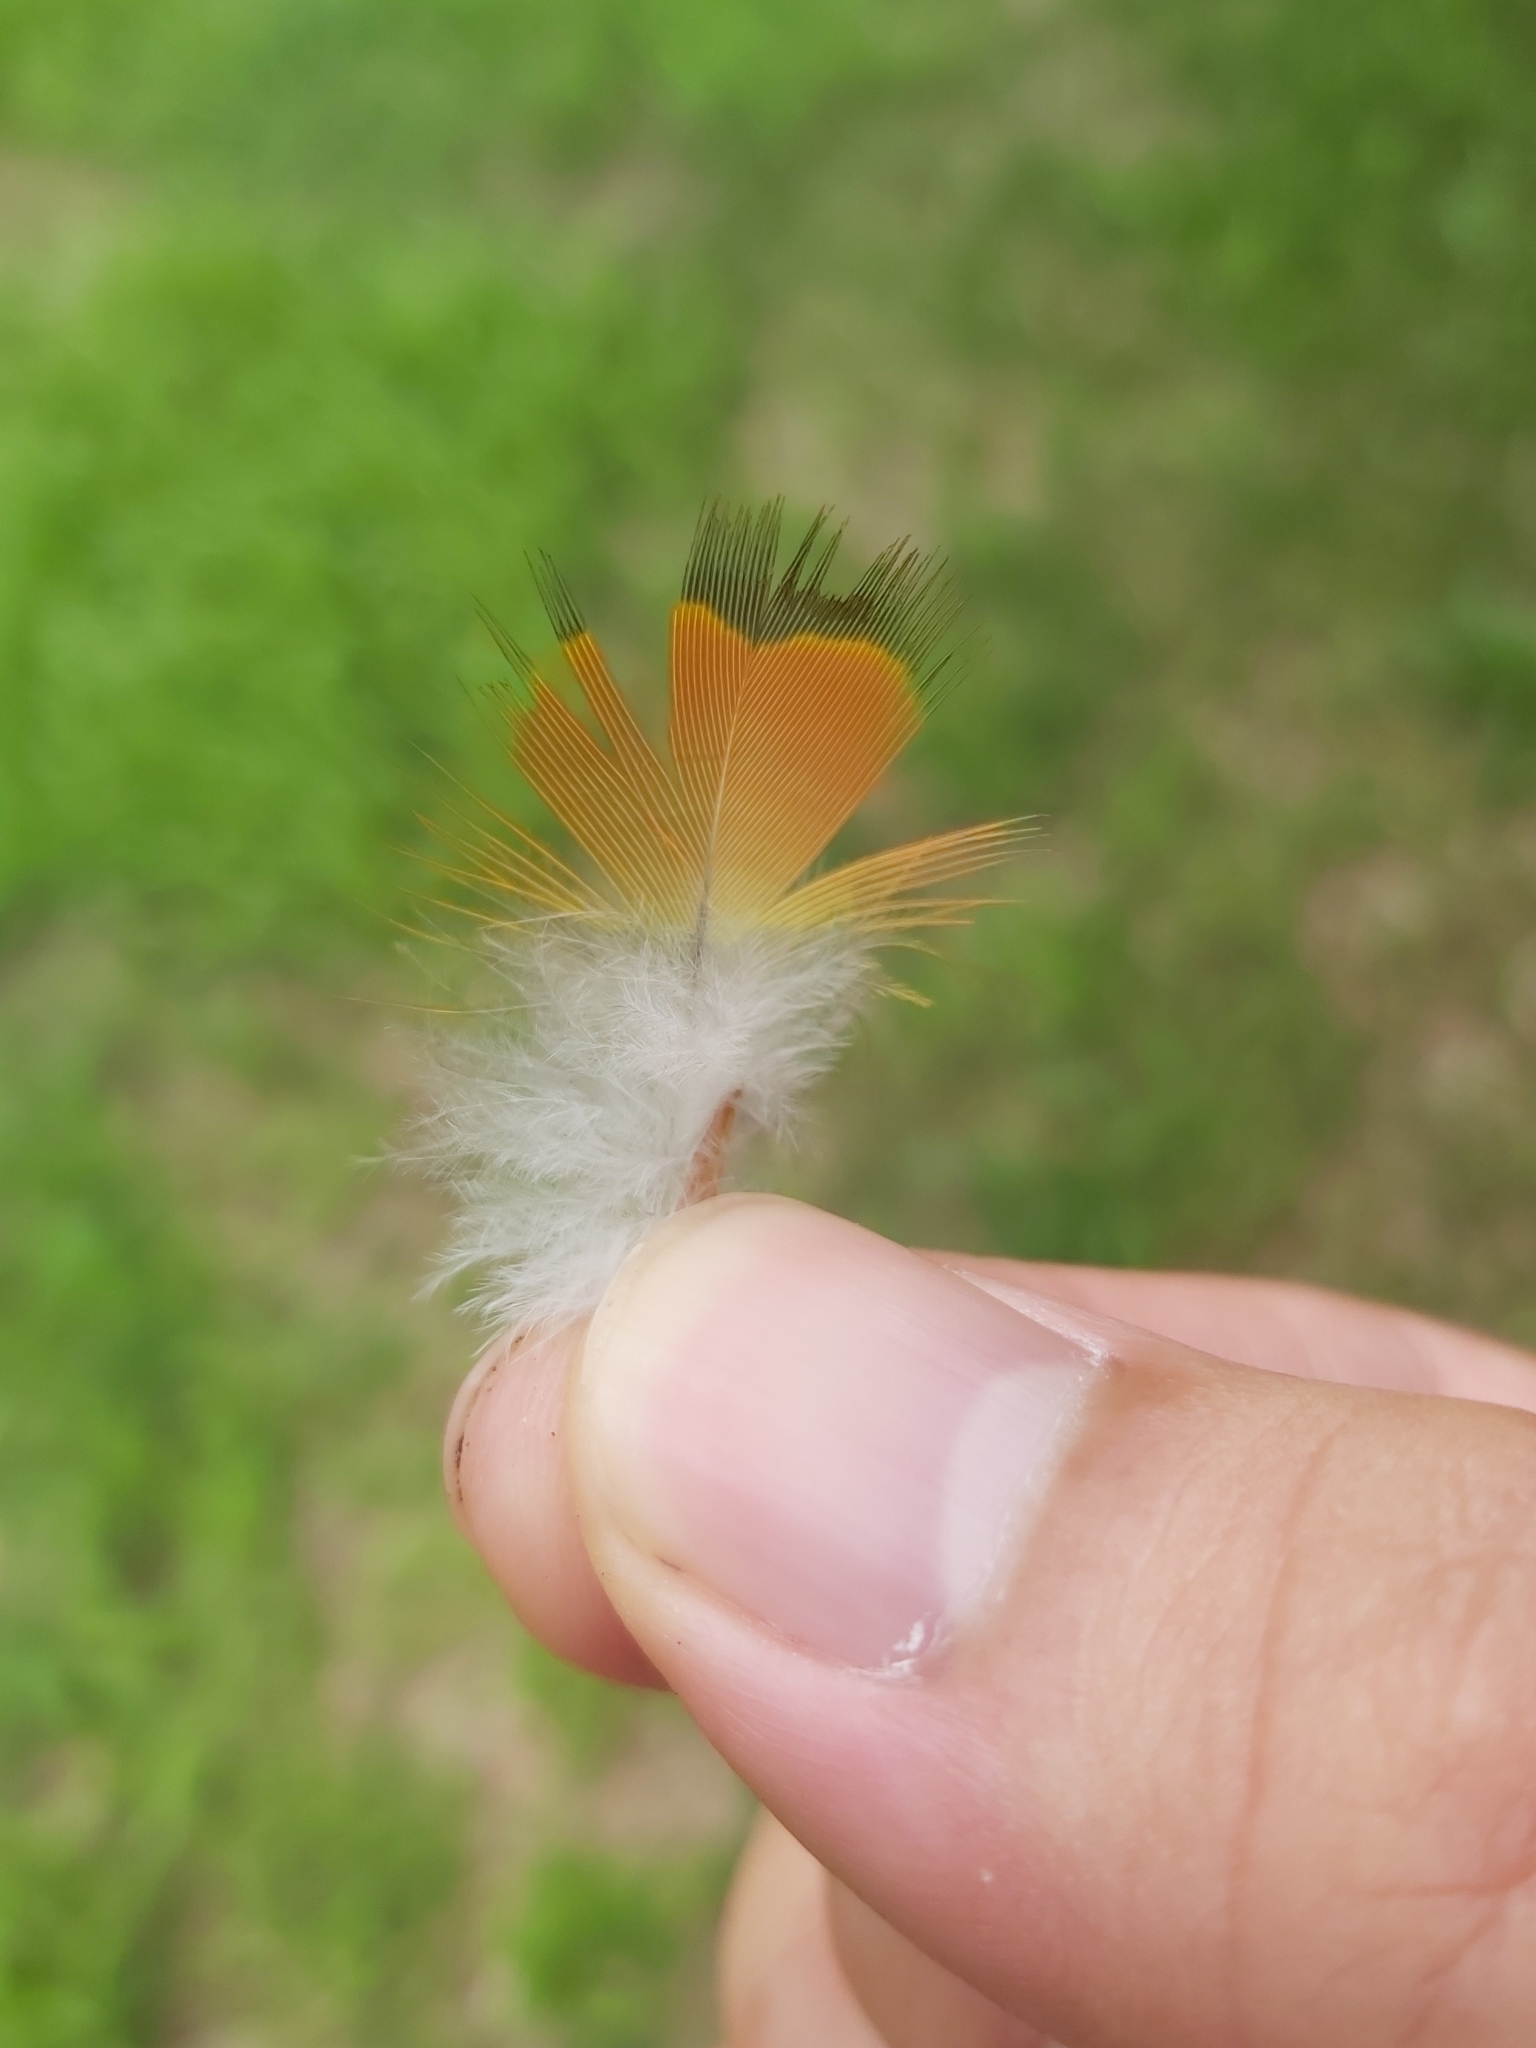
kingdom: Animalia
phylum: Chordata
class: Aves
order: Psittaciformes
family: Psittacidae
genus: Trichoglossus
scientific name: Trichoglossus haematodus
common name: Coconut lorikeet
